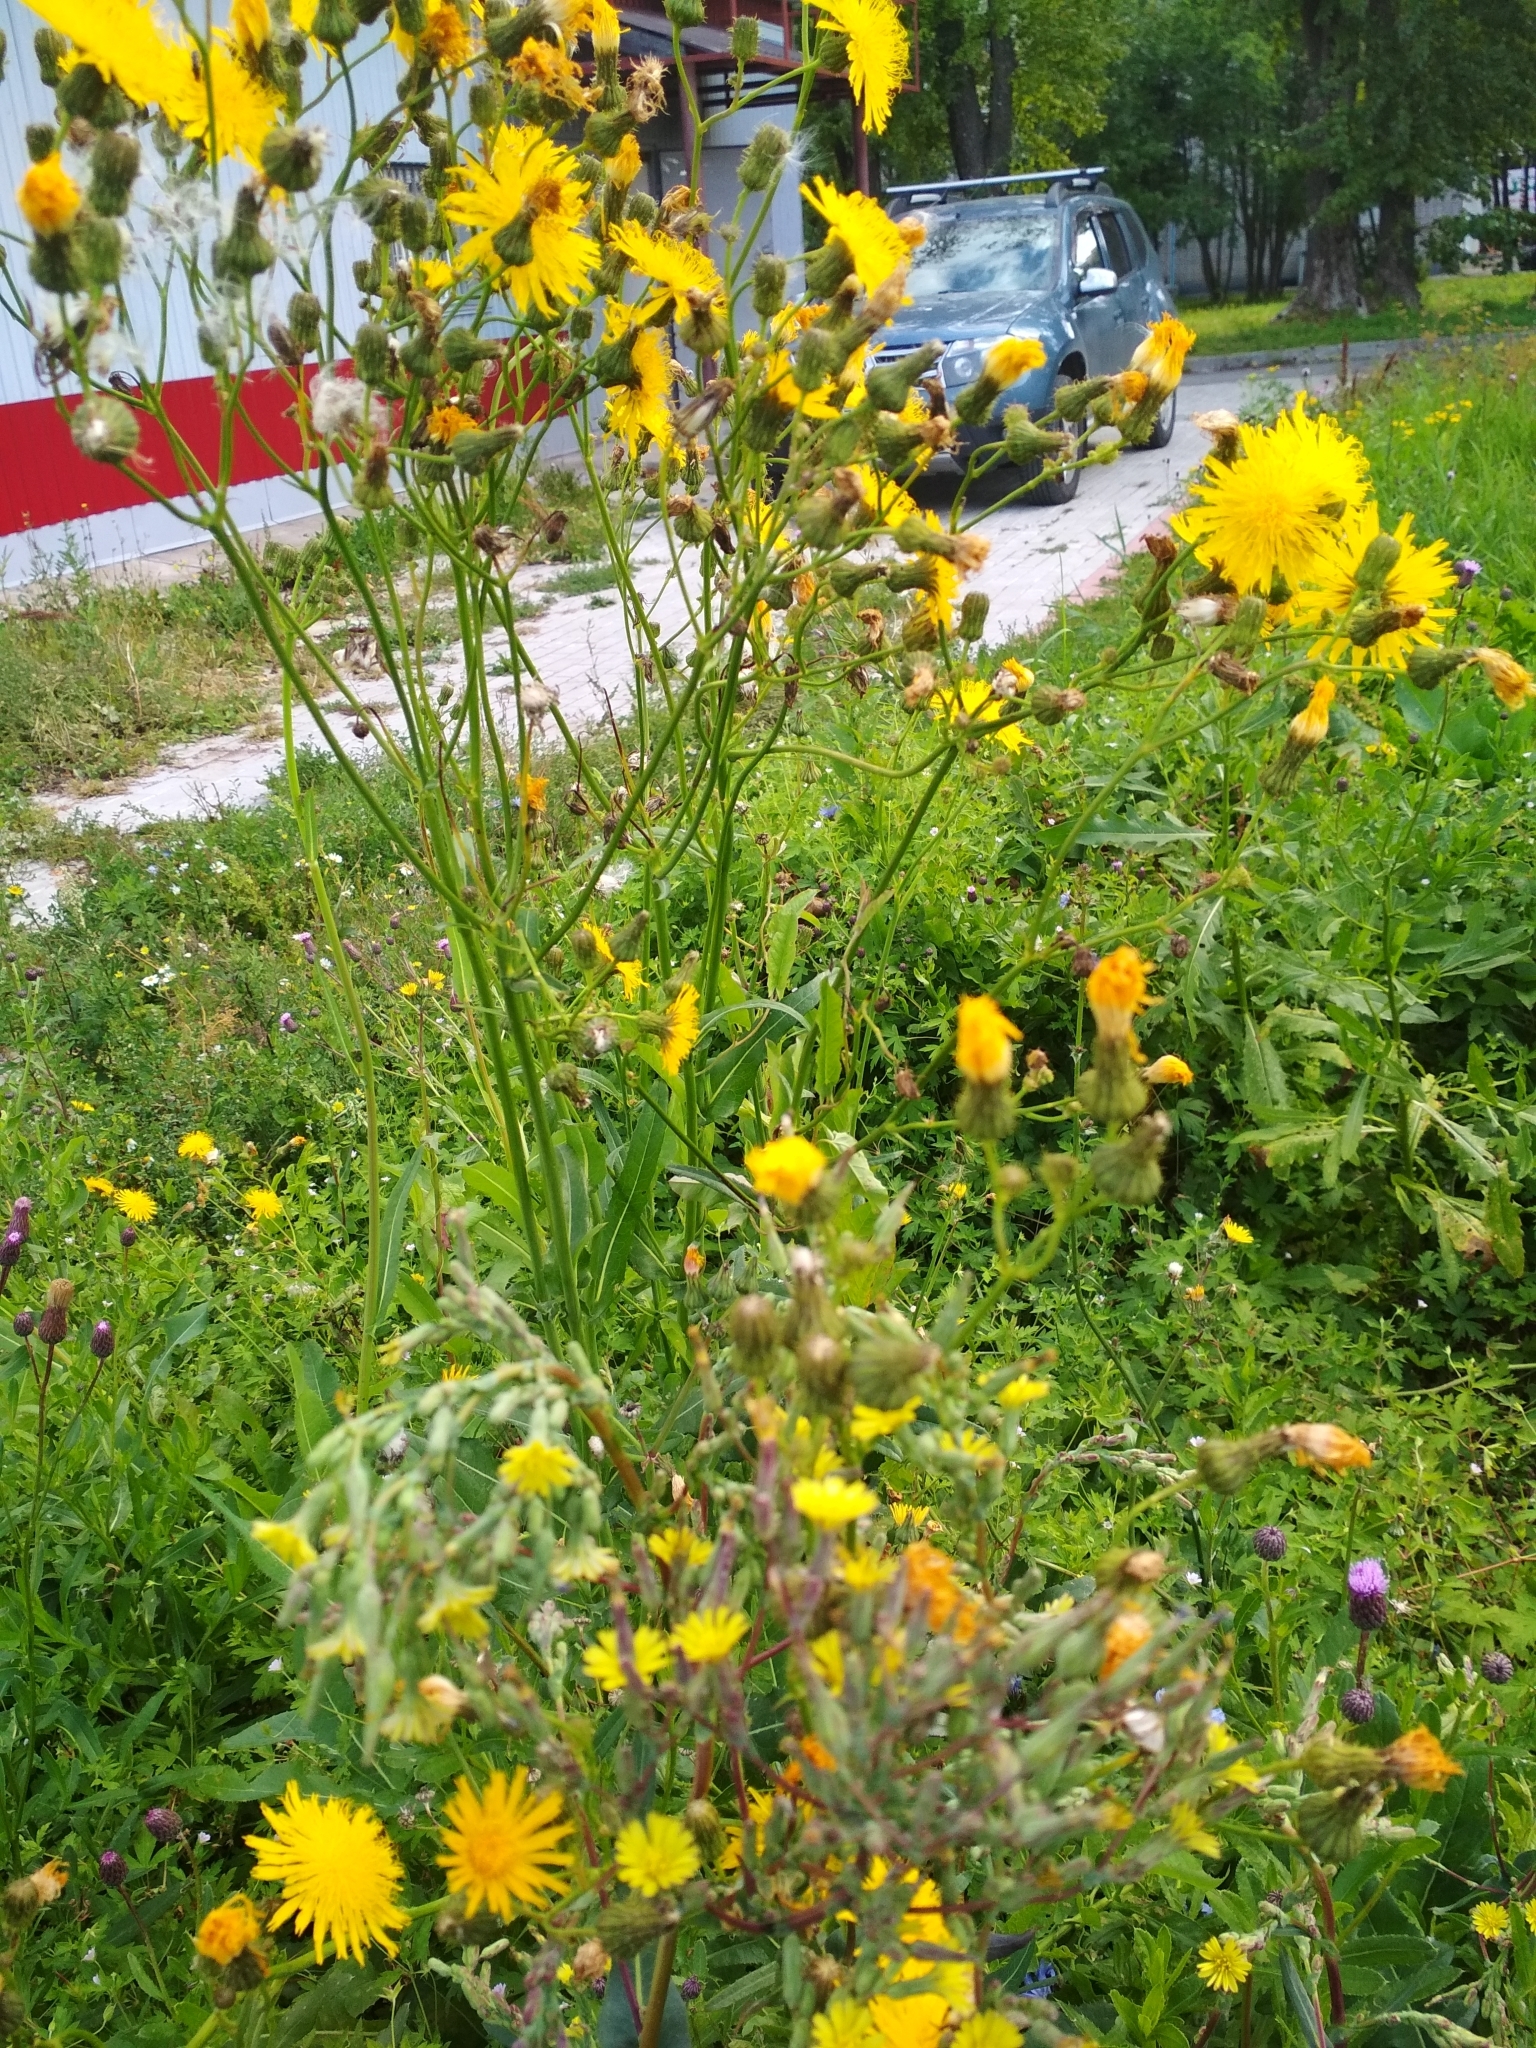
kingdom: Plantae
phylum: Tracheophyta
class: Magnoliopsida
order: Asterales
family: Asteraceae
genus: Sonchus
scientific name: Sonchus arvensis
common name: Perennial sow-thistle
